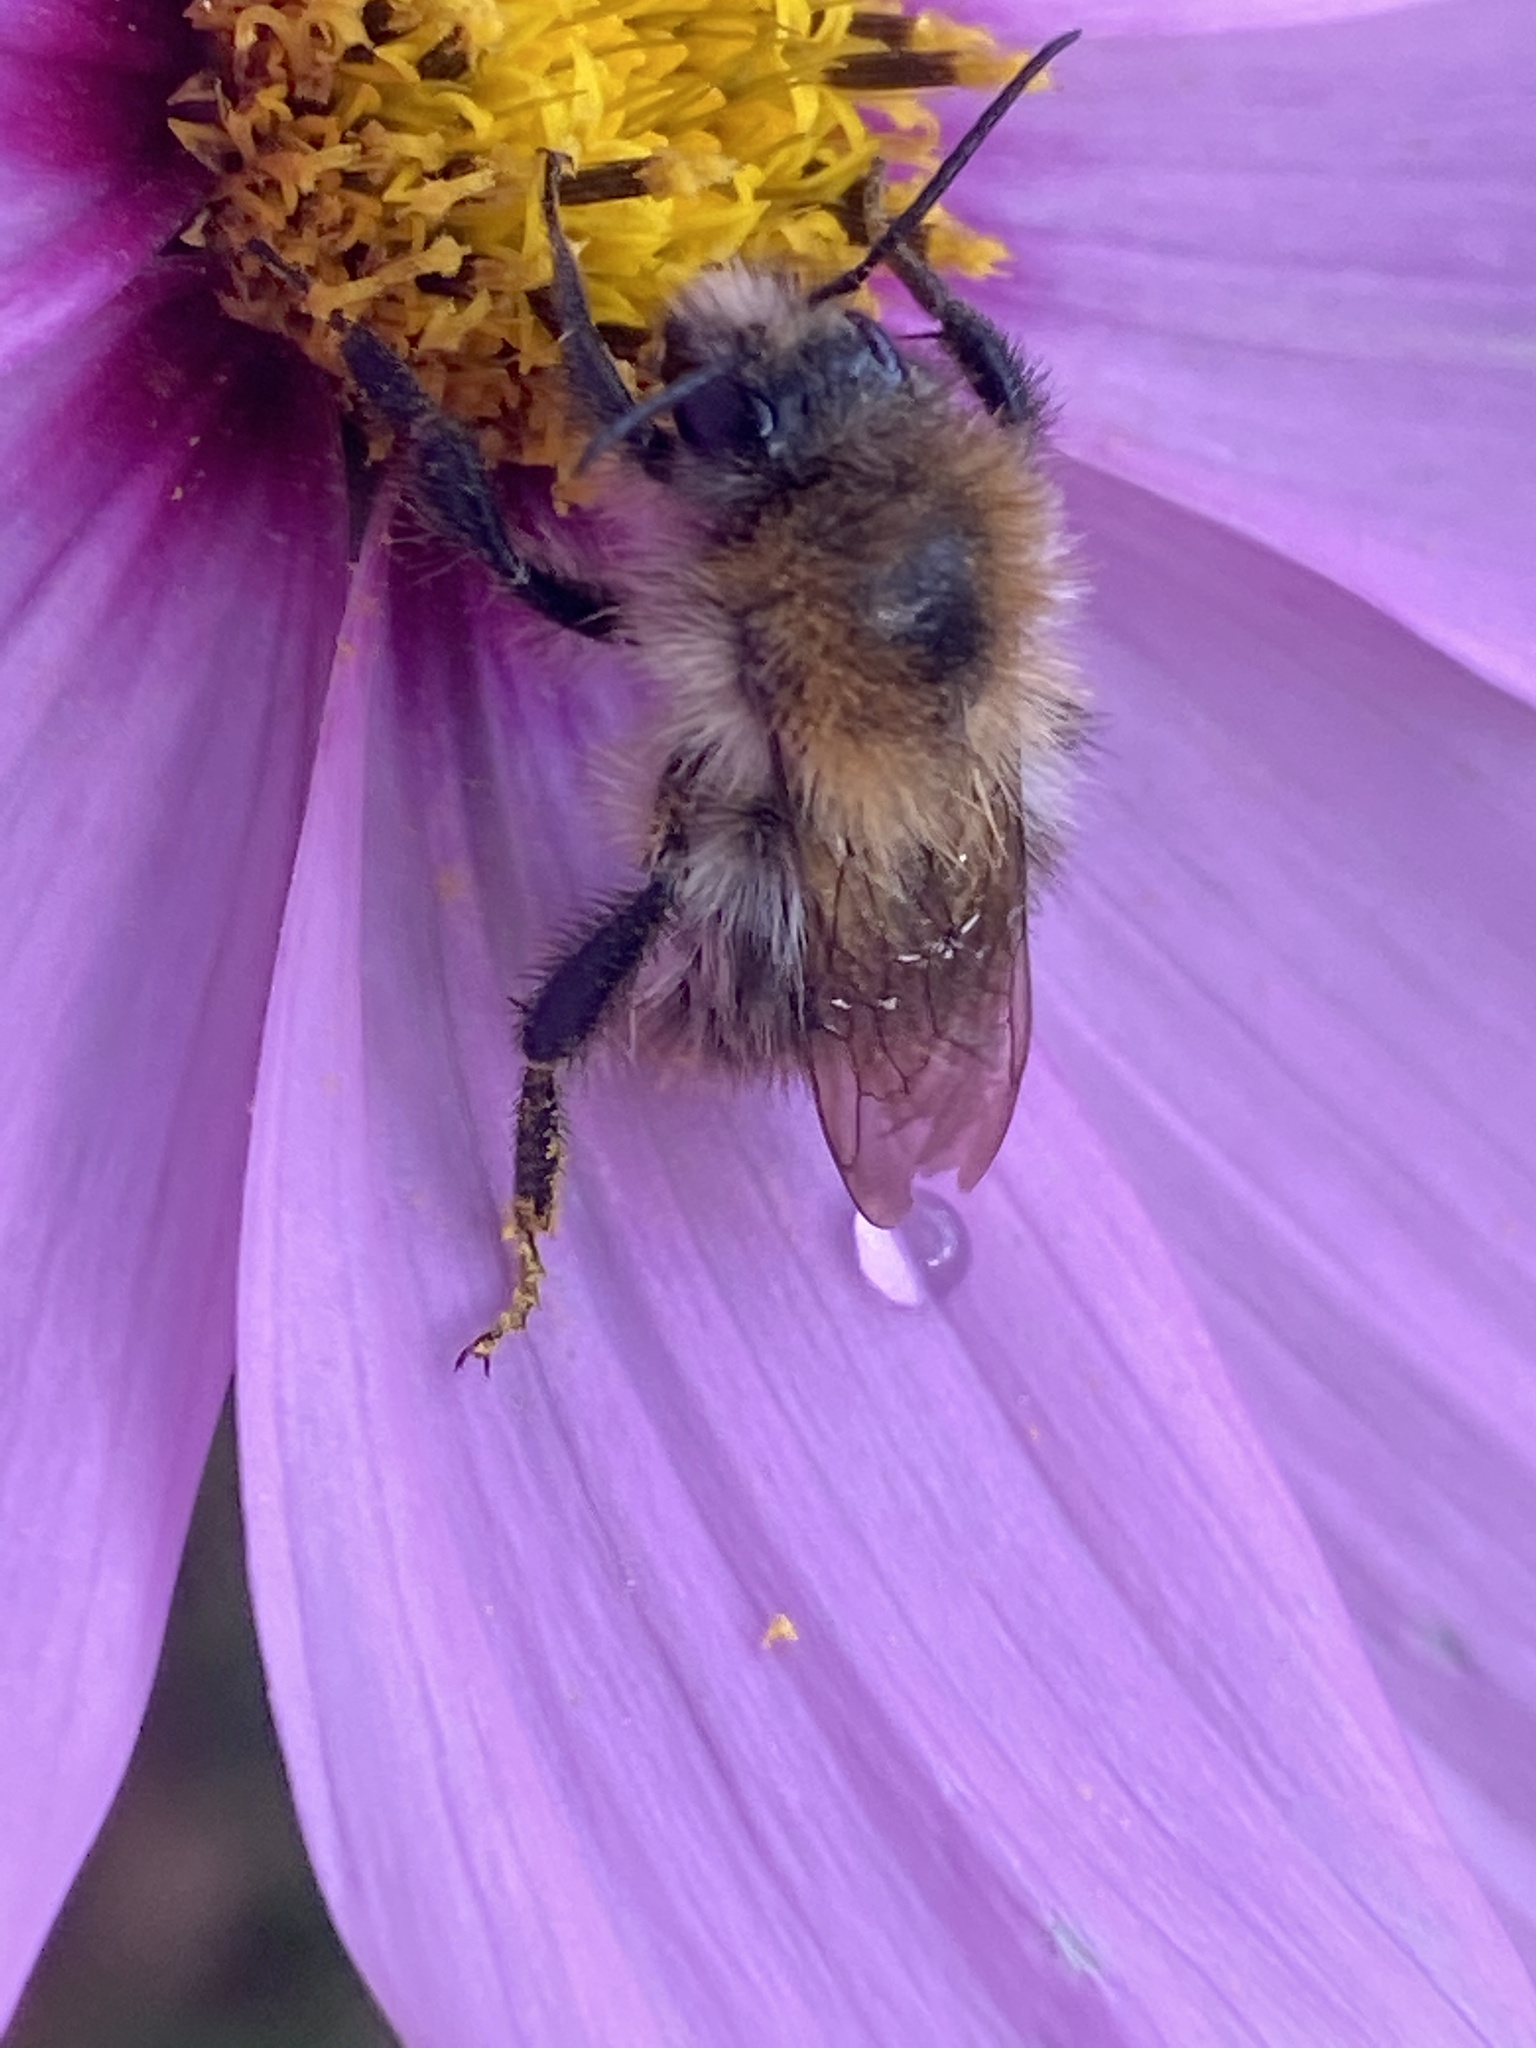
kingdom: Animalia
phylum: Arthropoda
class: Insecta
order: Hymenoptera
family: Apidae
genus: Bombus
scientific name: Bombus pascuorum
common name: Common carder bee
